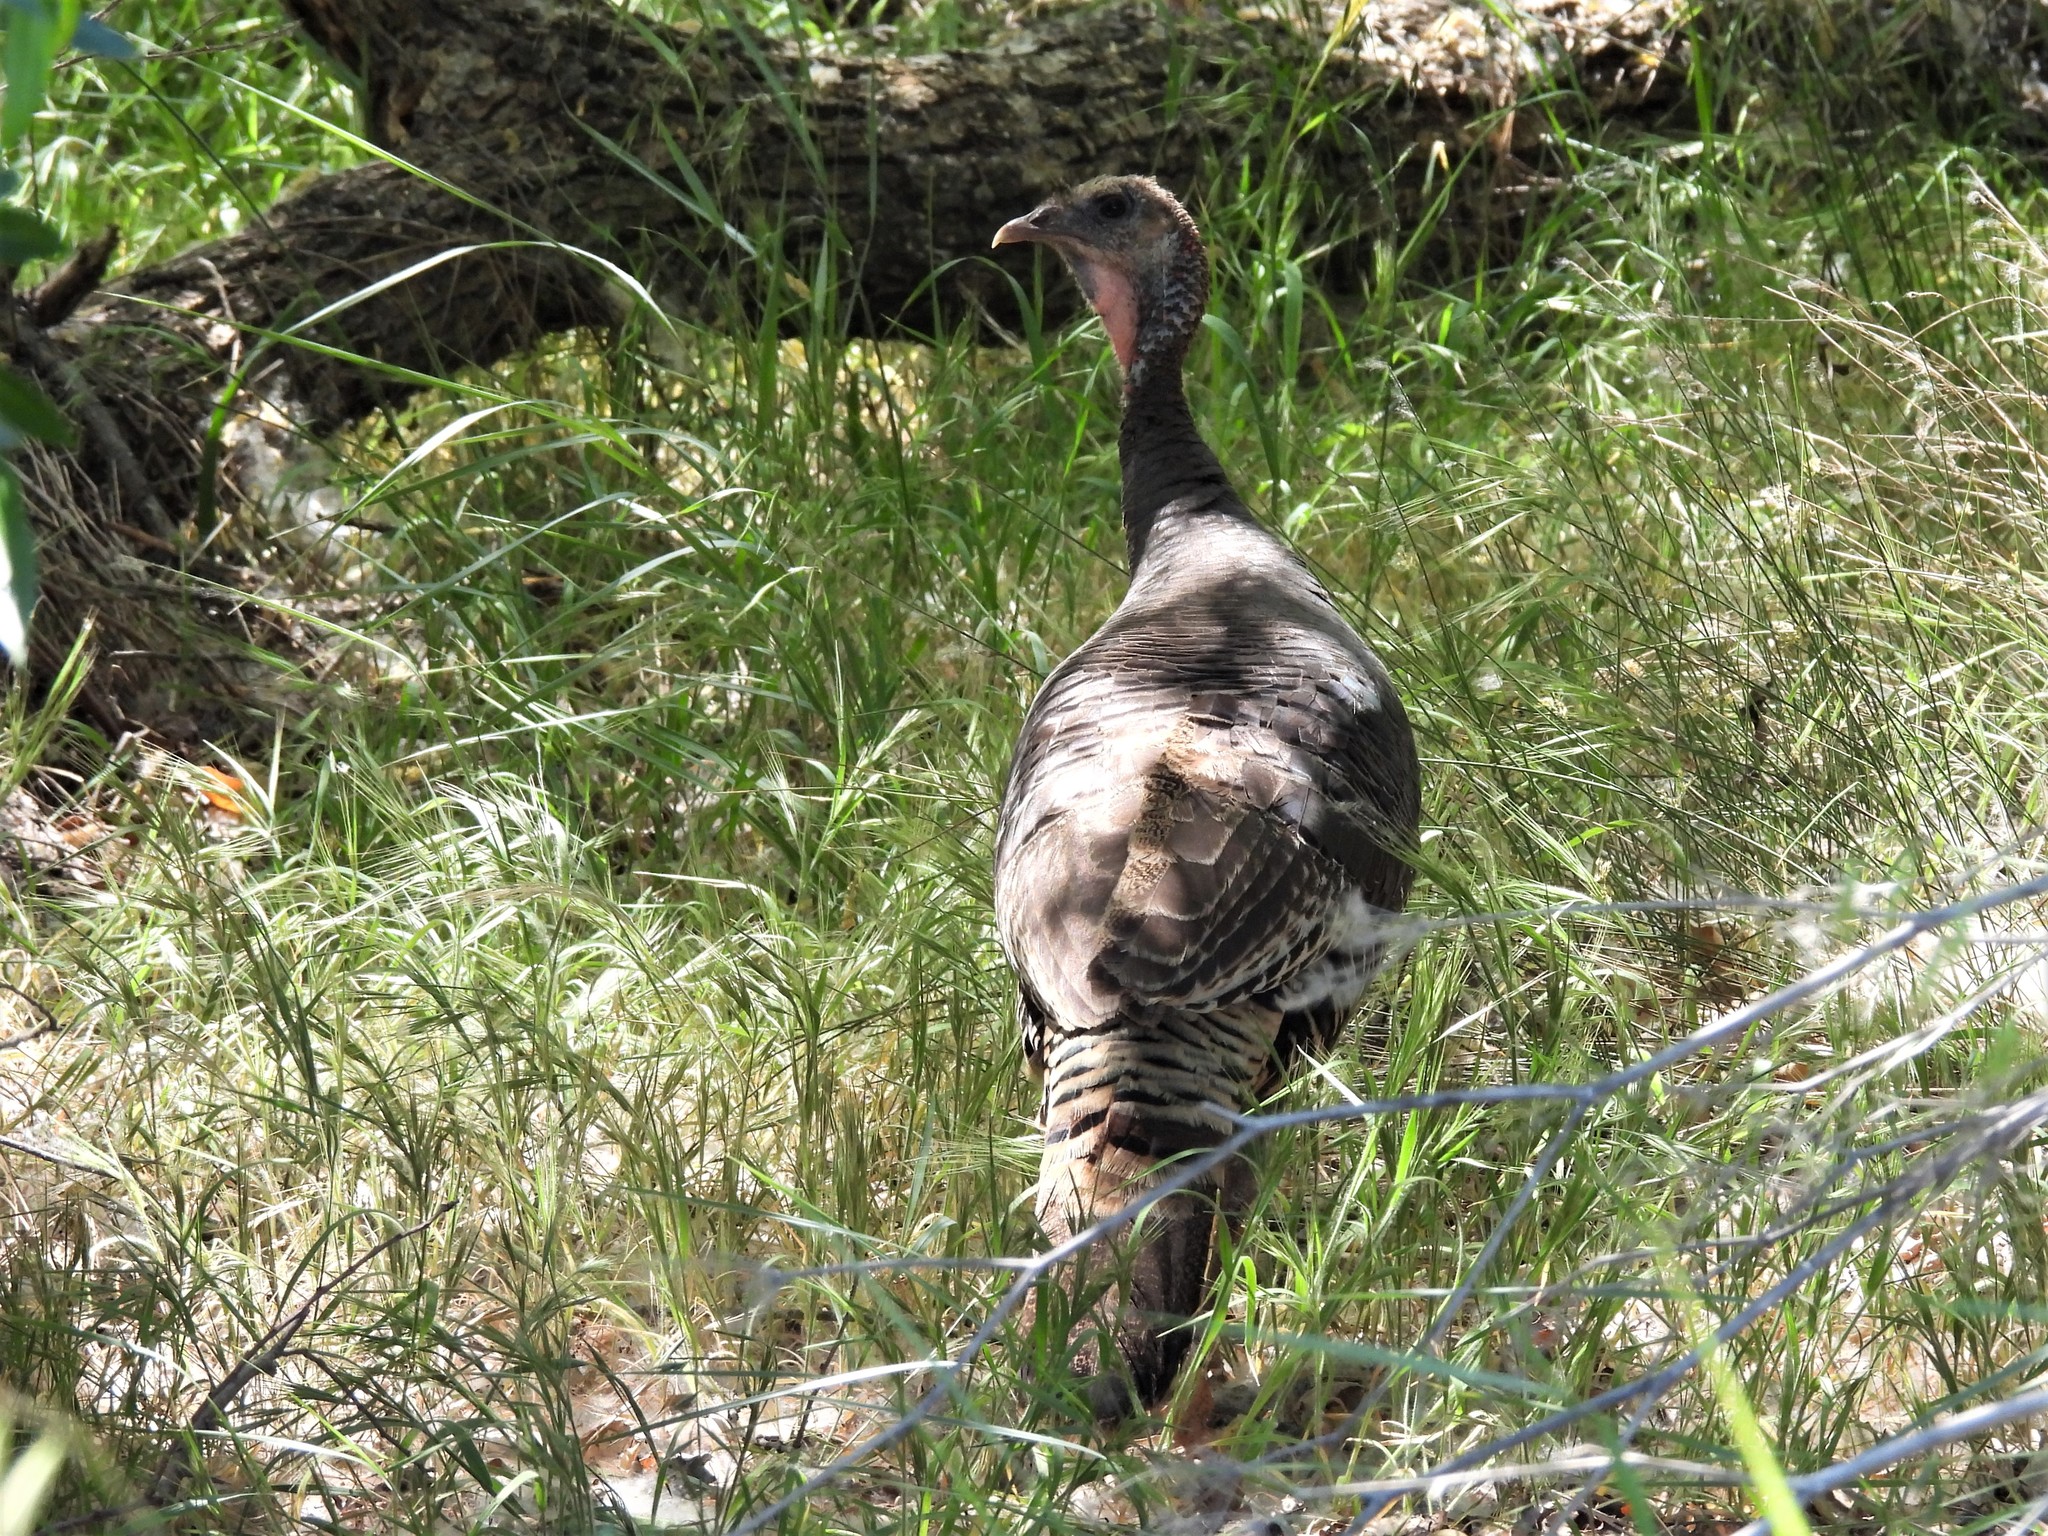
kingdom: Animalia
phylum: Chordata
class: Aves
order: Galliformes
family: Phasianidae
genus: Meleagris
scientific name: Meleagris gallopavo
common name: Wild turkey
